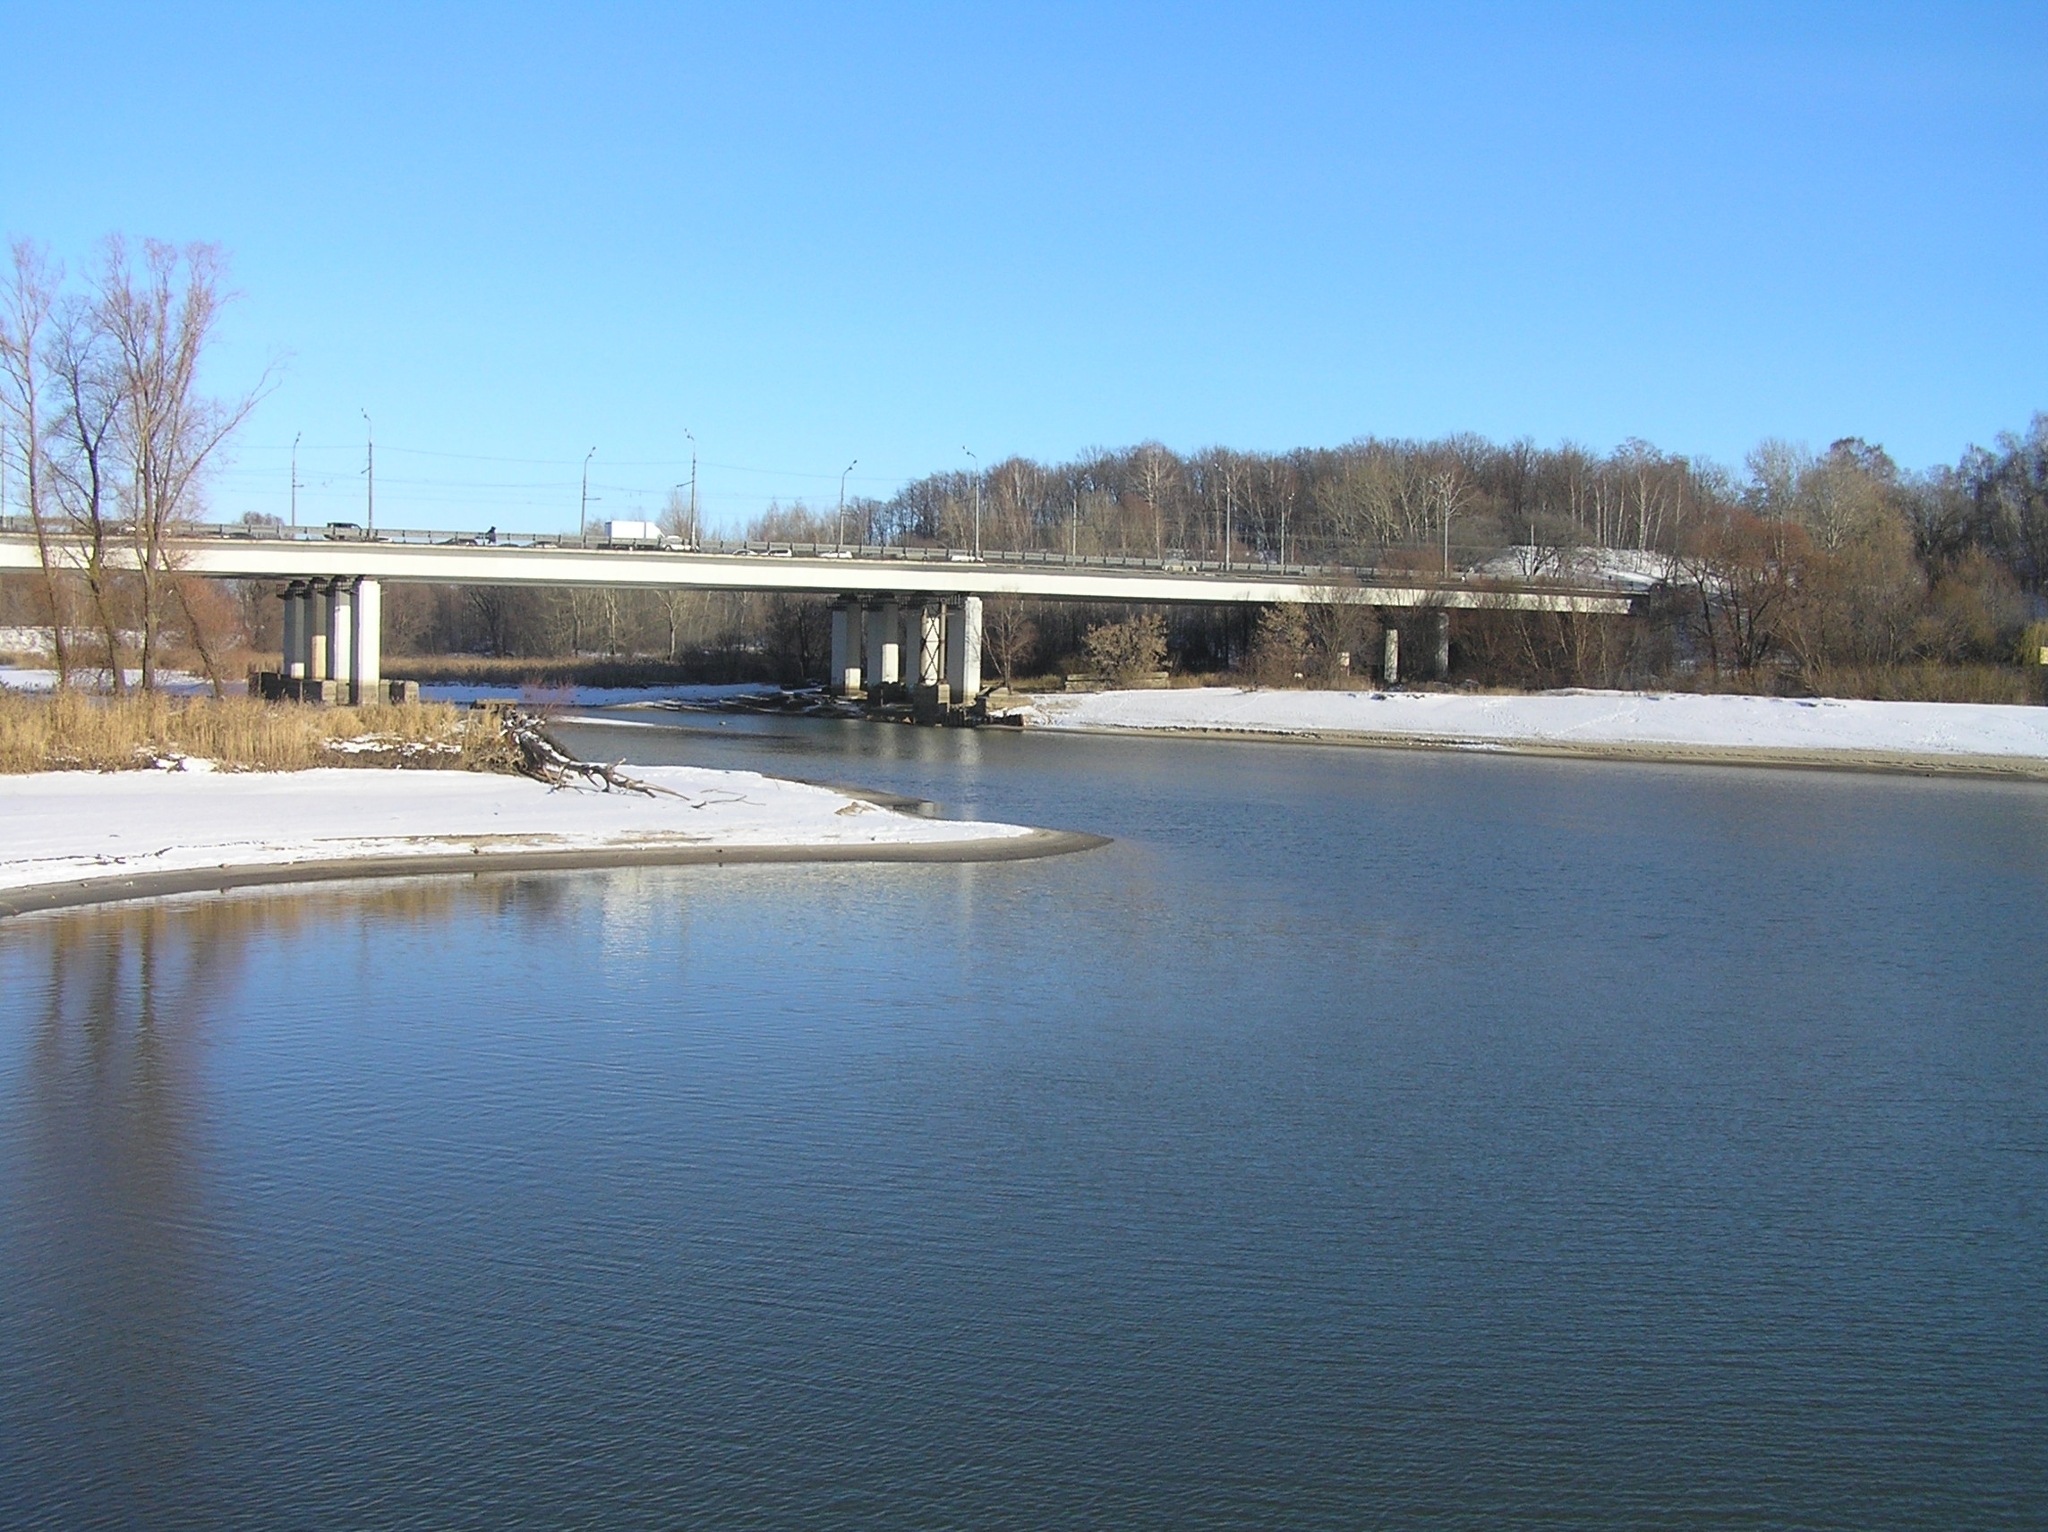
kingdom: Animalia
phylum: Chordata
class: Aves
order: Anseriformes
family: Anatidae
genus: Anas
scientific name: Anas platyrhynchos
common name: Mallard
